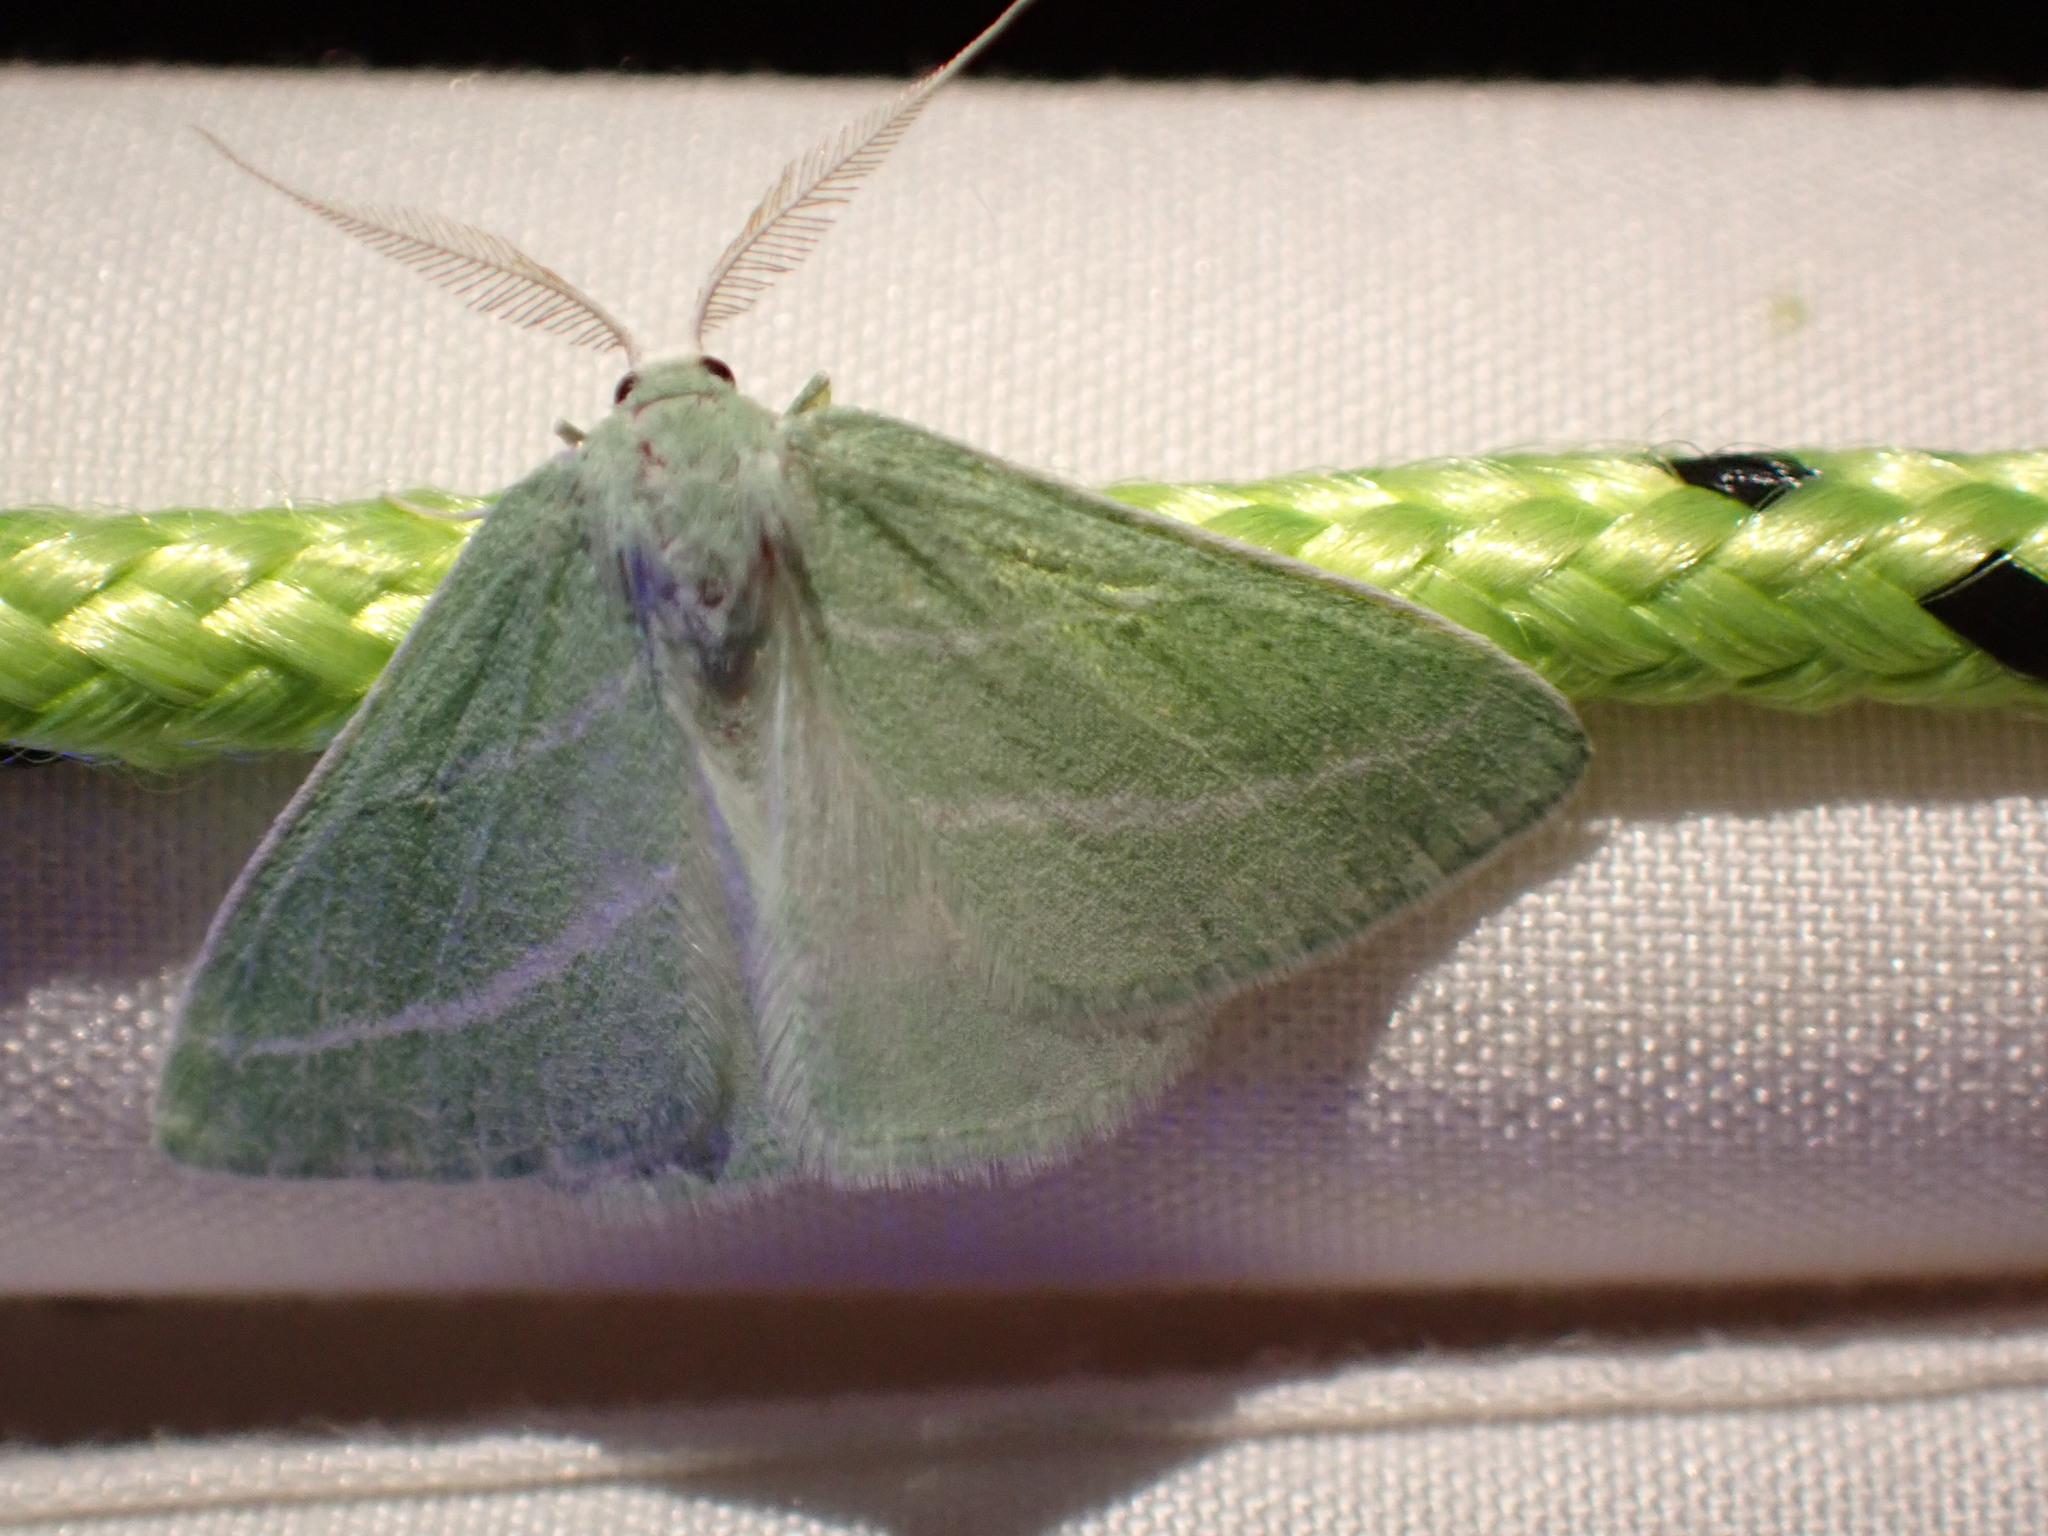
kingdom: Animalia
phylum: Arthropoda
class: Insecta
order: Lepidoptera
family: Geometridae
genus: Synchlora
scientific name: Synchlora bistriaria
